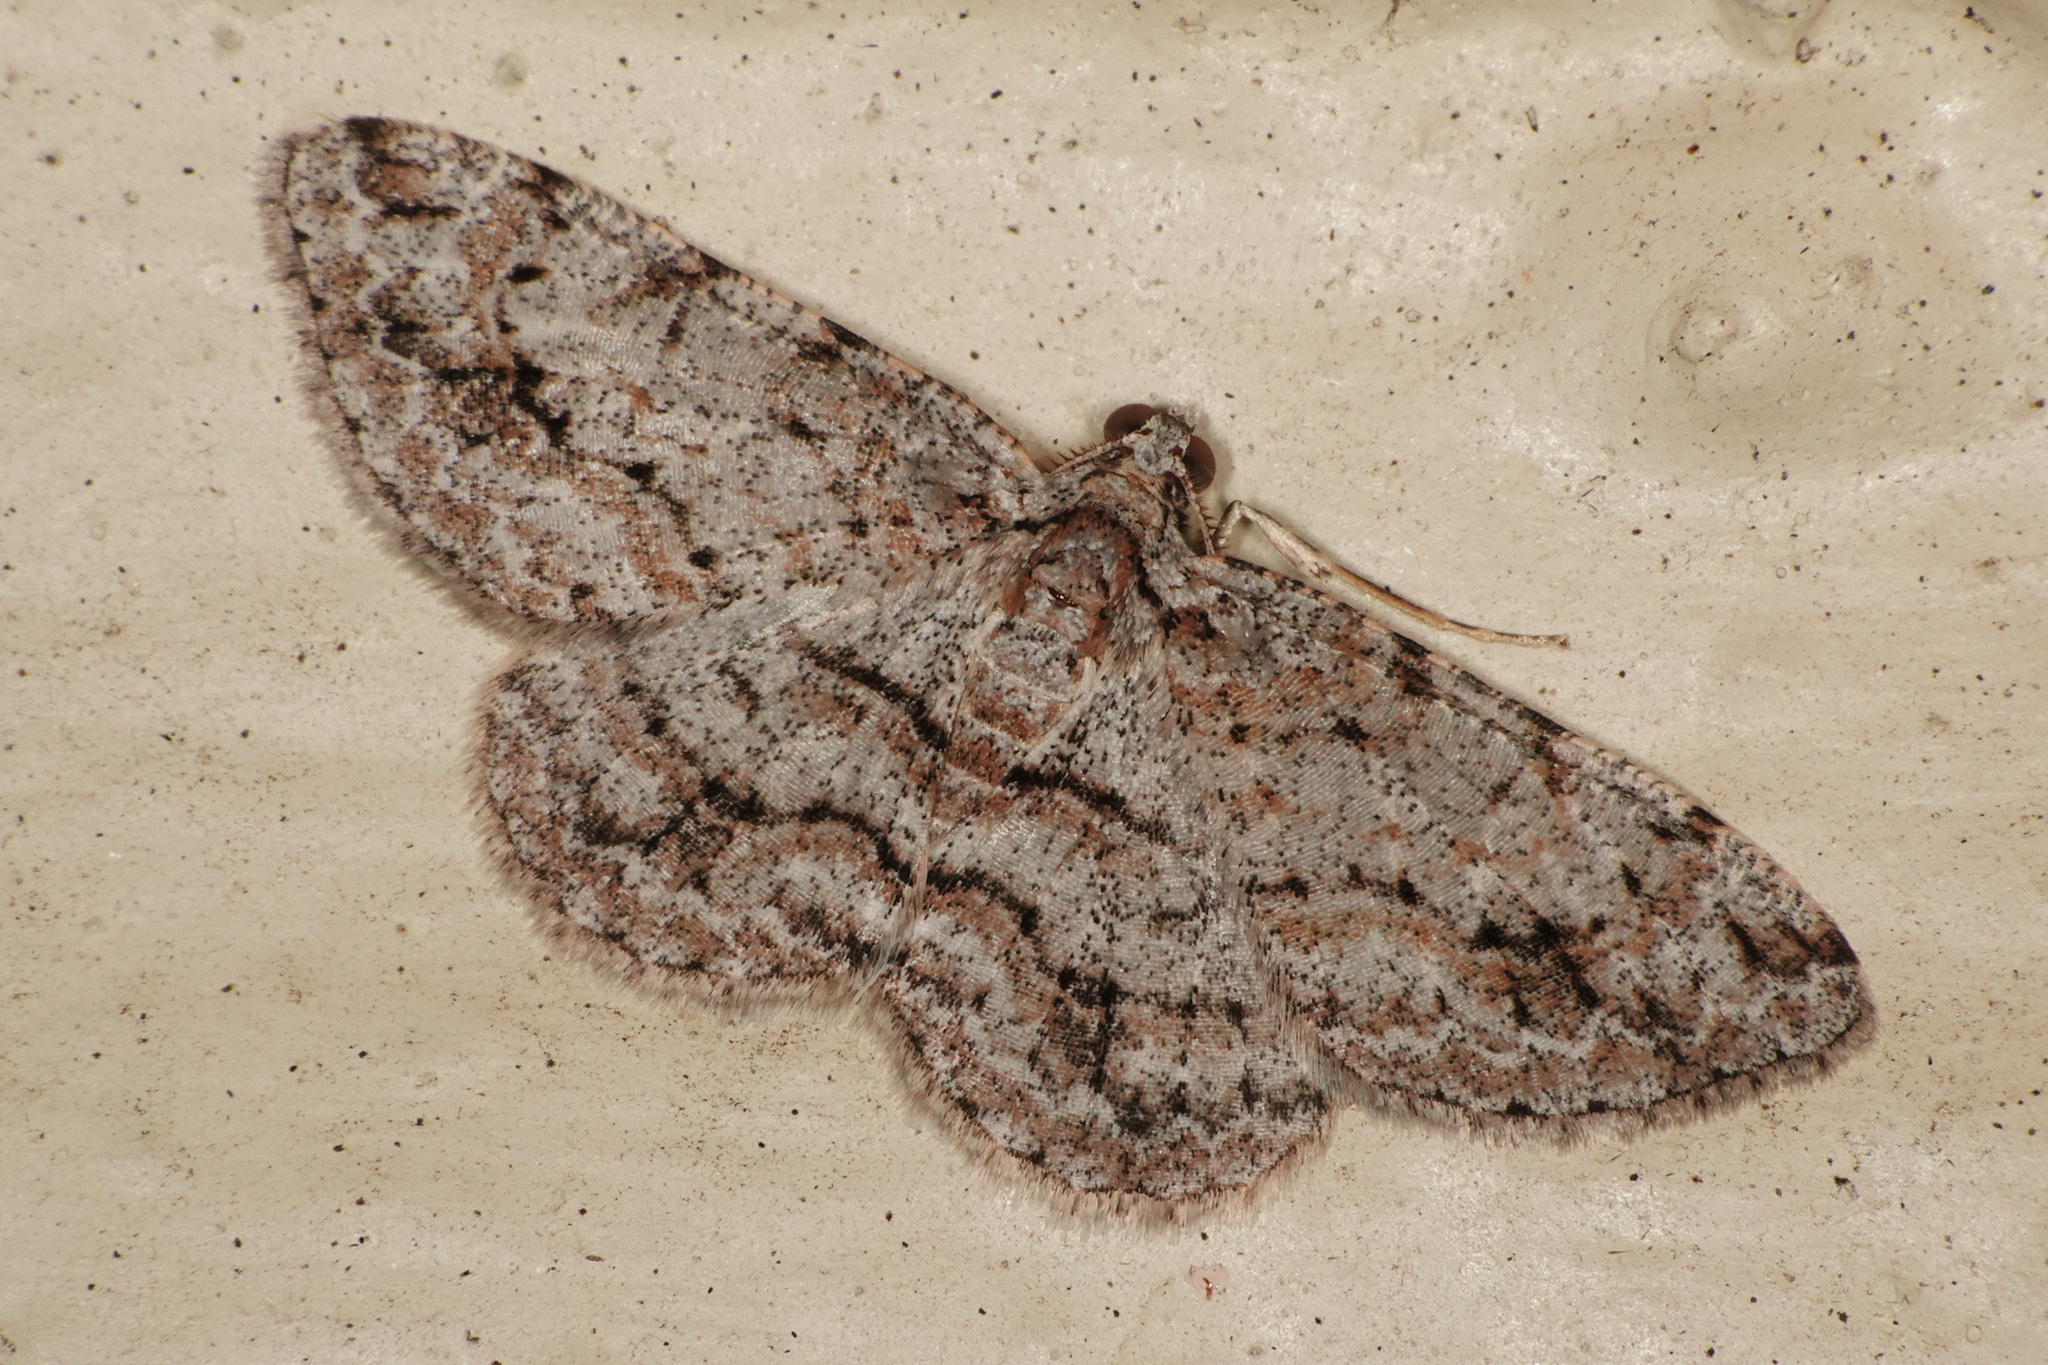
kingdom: Animalia
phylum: Arthropoda
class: Insecta
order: Lepidoptera
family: Geometridae
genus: Didymoctenia
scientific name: Didymoctenia exsuperata
